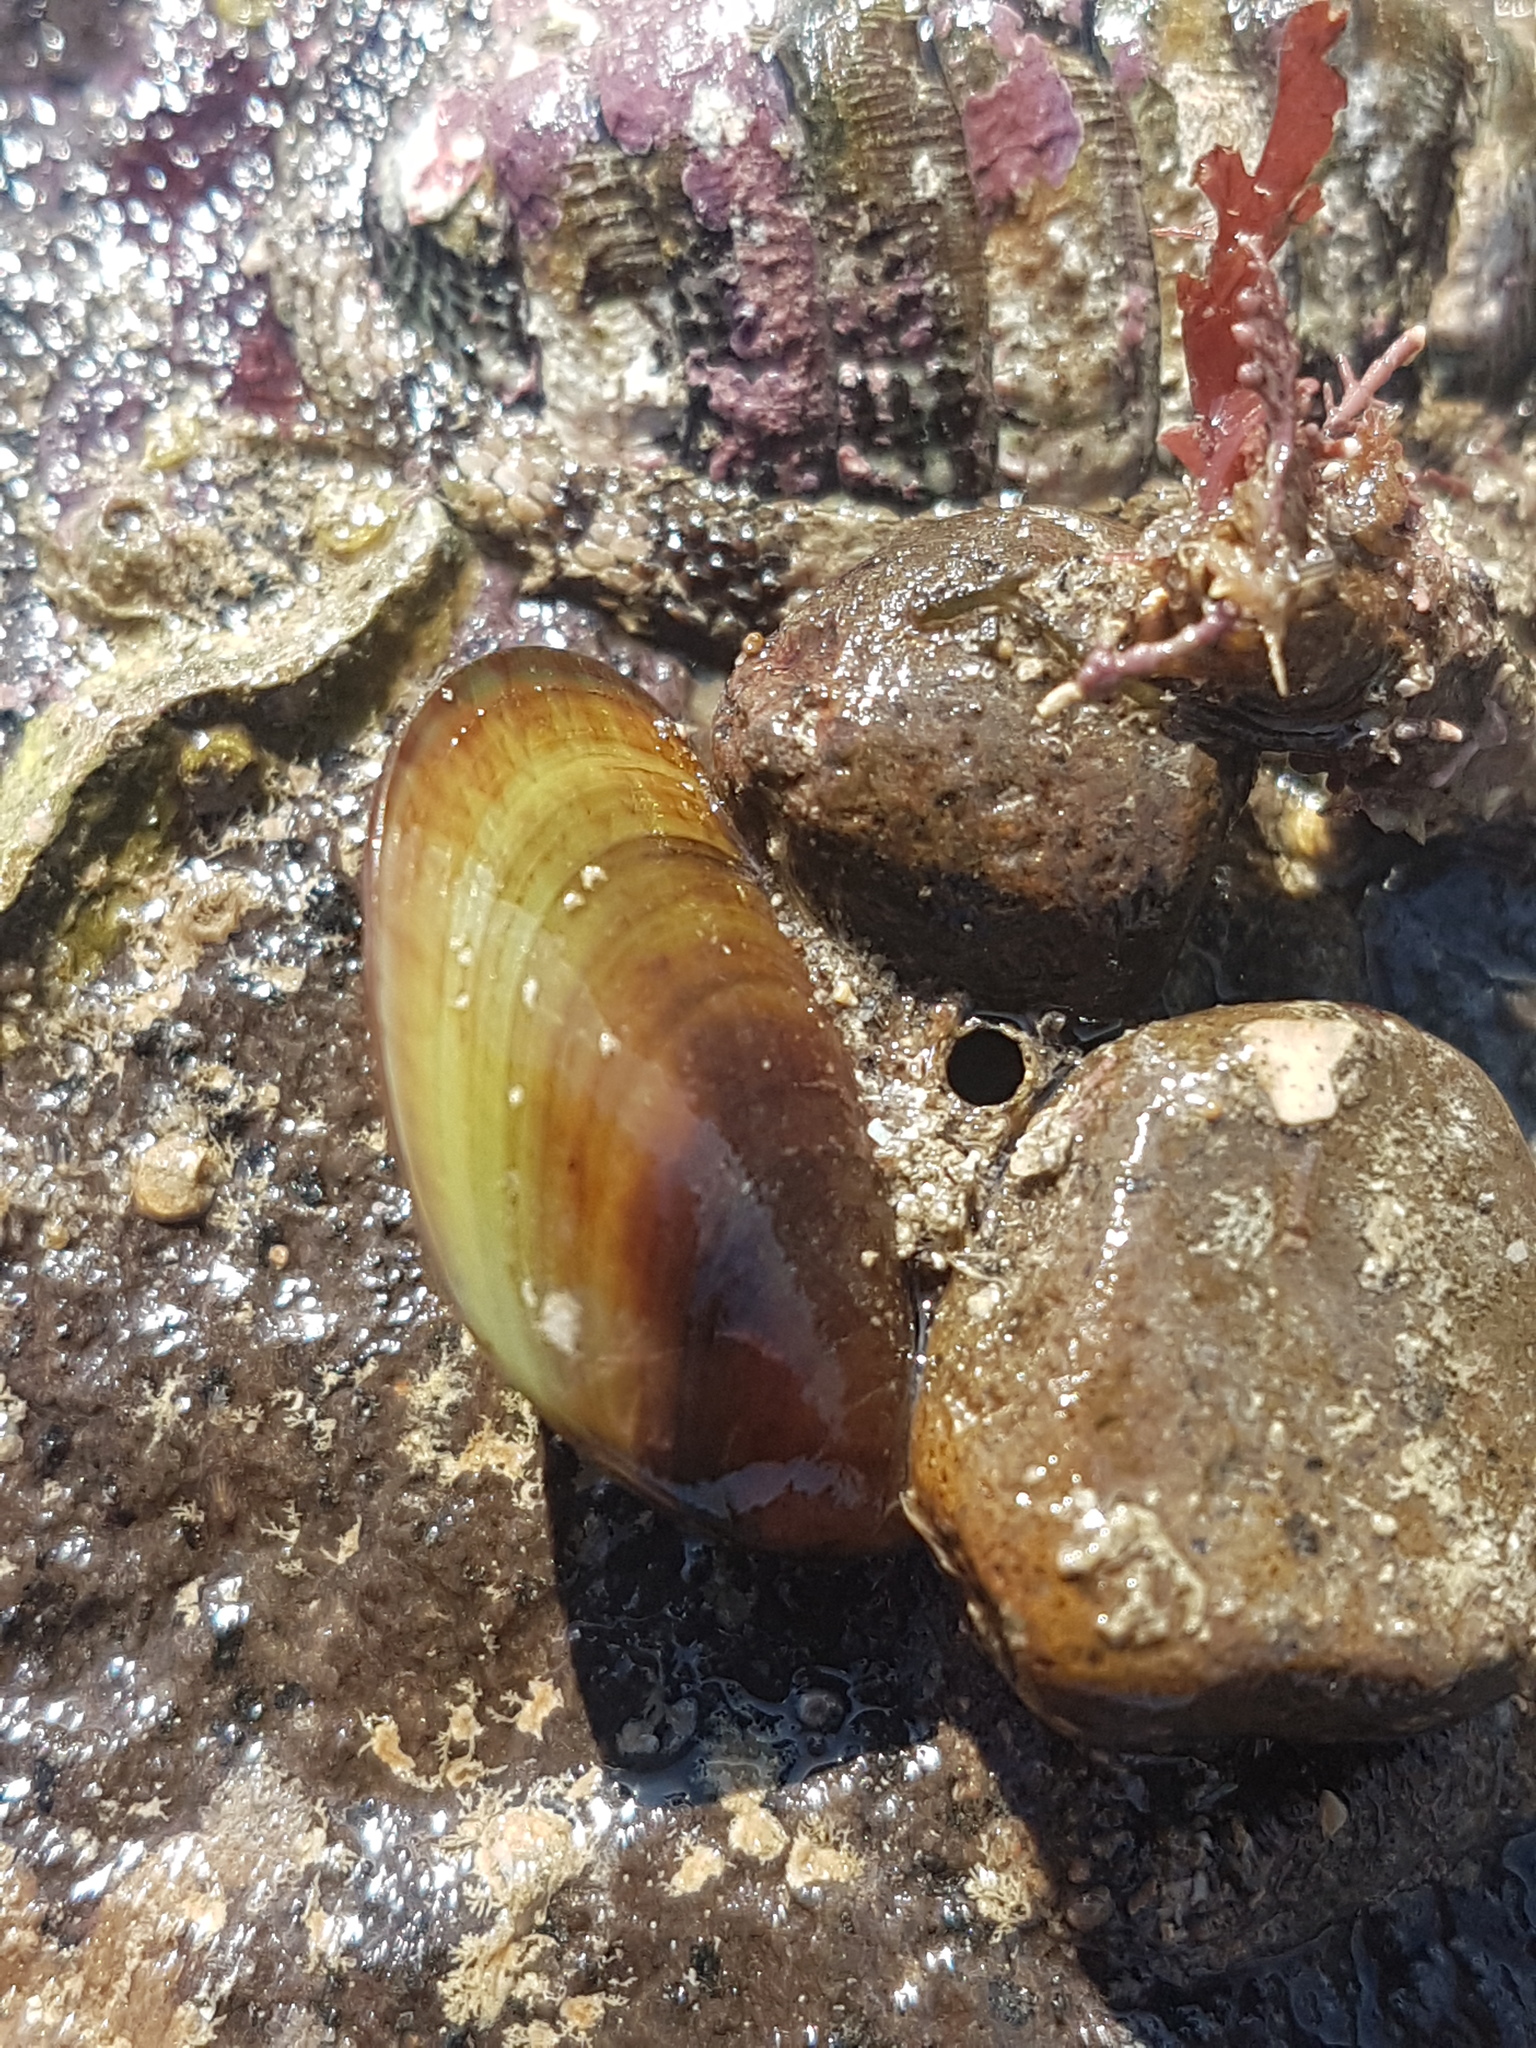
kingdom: Animalia
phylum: Mollusca
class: Bivalvia
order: Mytilida
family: Mytilidae
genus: Perna
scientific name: Perna canaliculus
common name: New zealand greenshelltm
